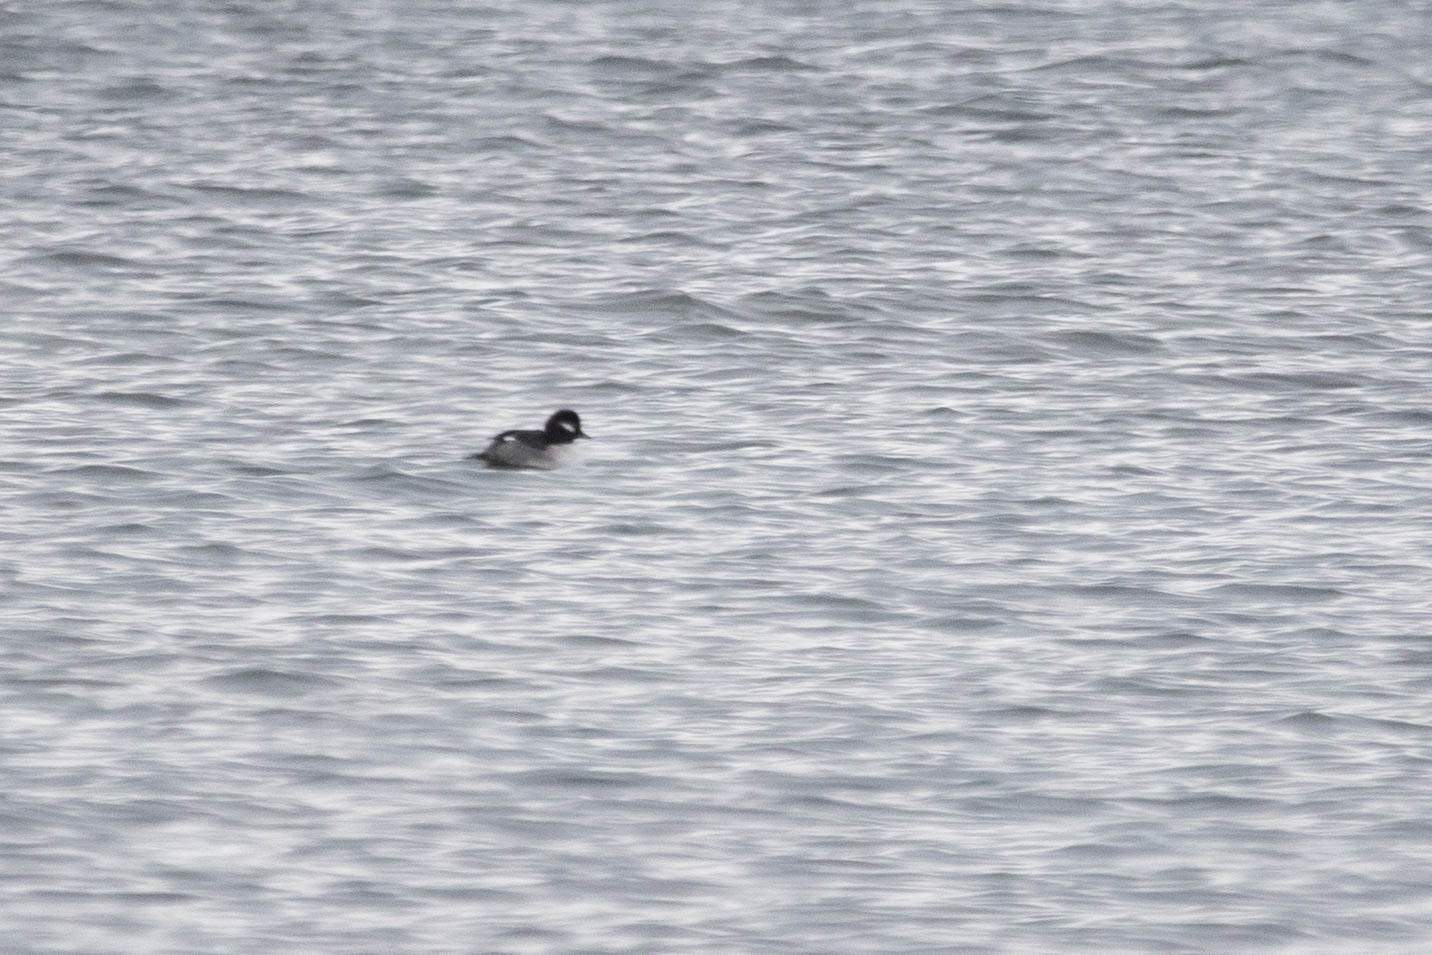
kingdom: Animalia
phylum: Chordata
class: Aves
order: Anseriformes
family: Anatidae
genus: Bucephala
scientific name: Bucephala albeola
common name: Bufflehead
